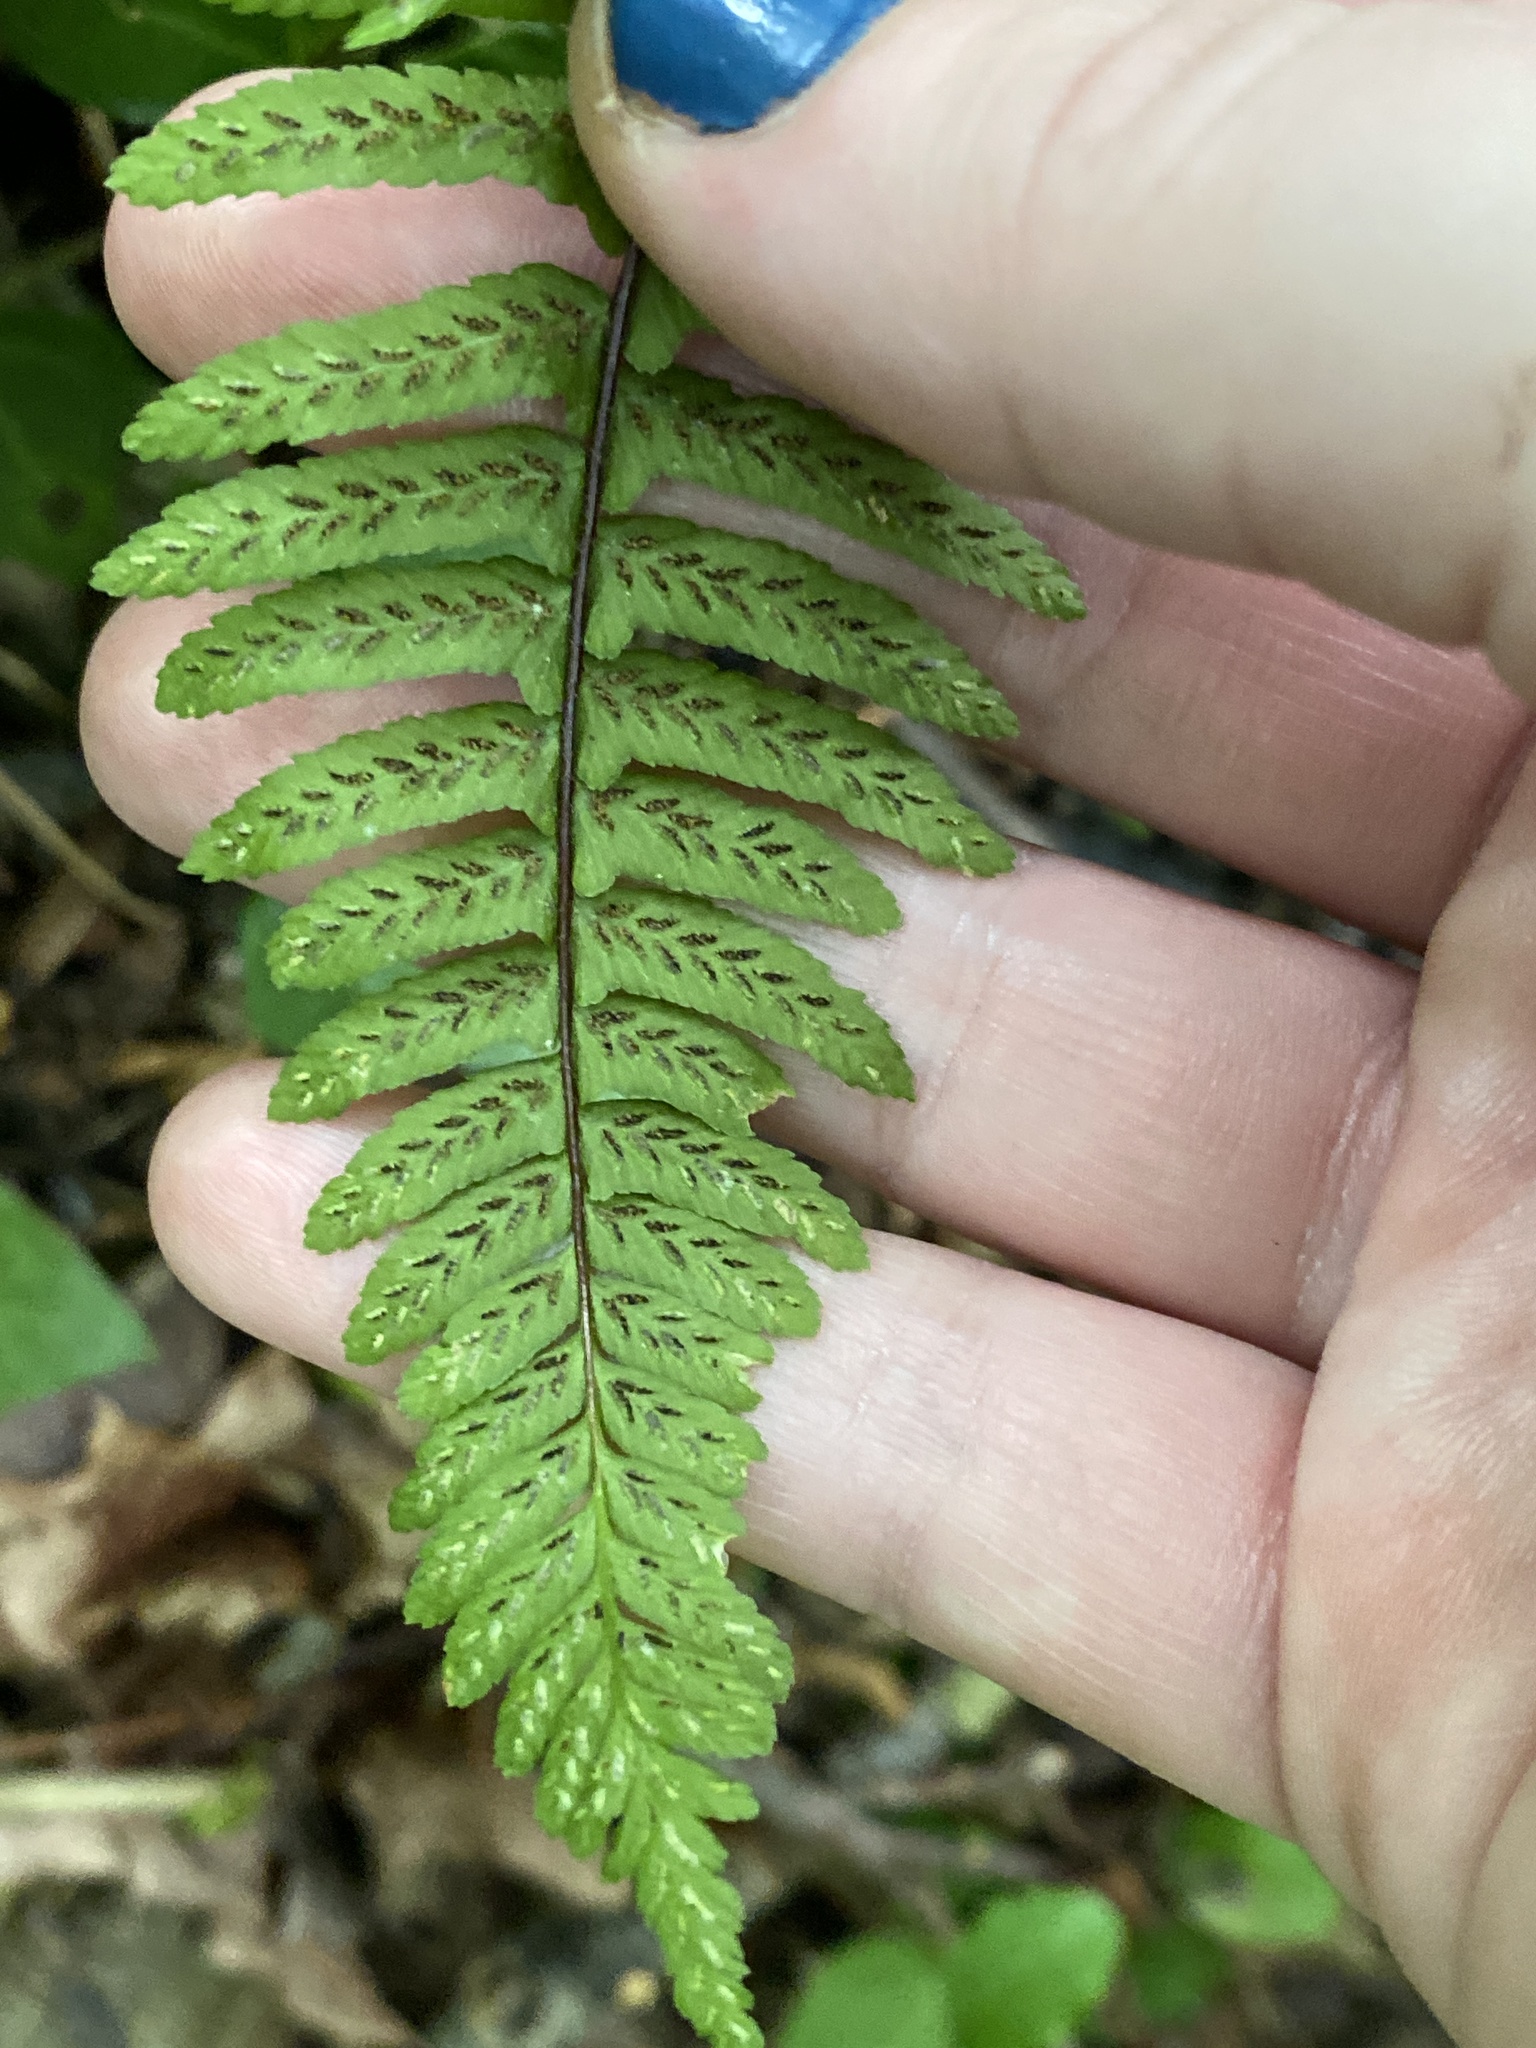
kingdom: Plantae
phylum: Tracheophyta
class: Polypodiopsida
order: Polypodiales
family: Aspleniaceae
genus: Asplenium
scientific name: Asplenium platyneuron
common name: Ebony spleenwort
